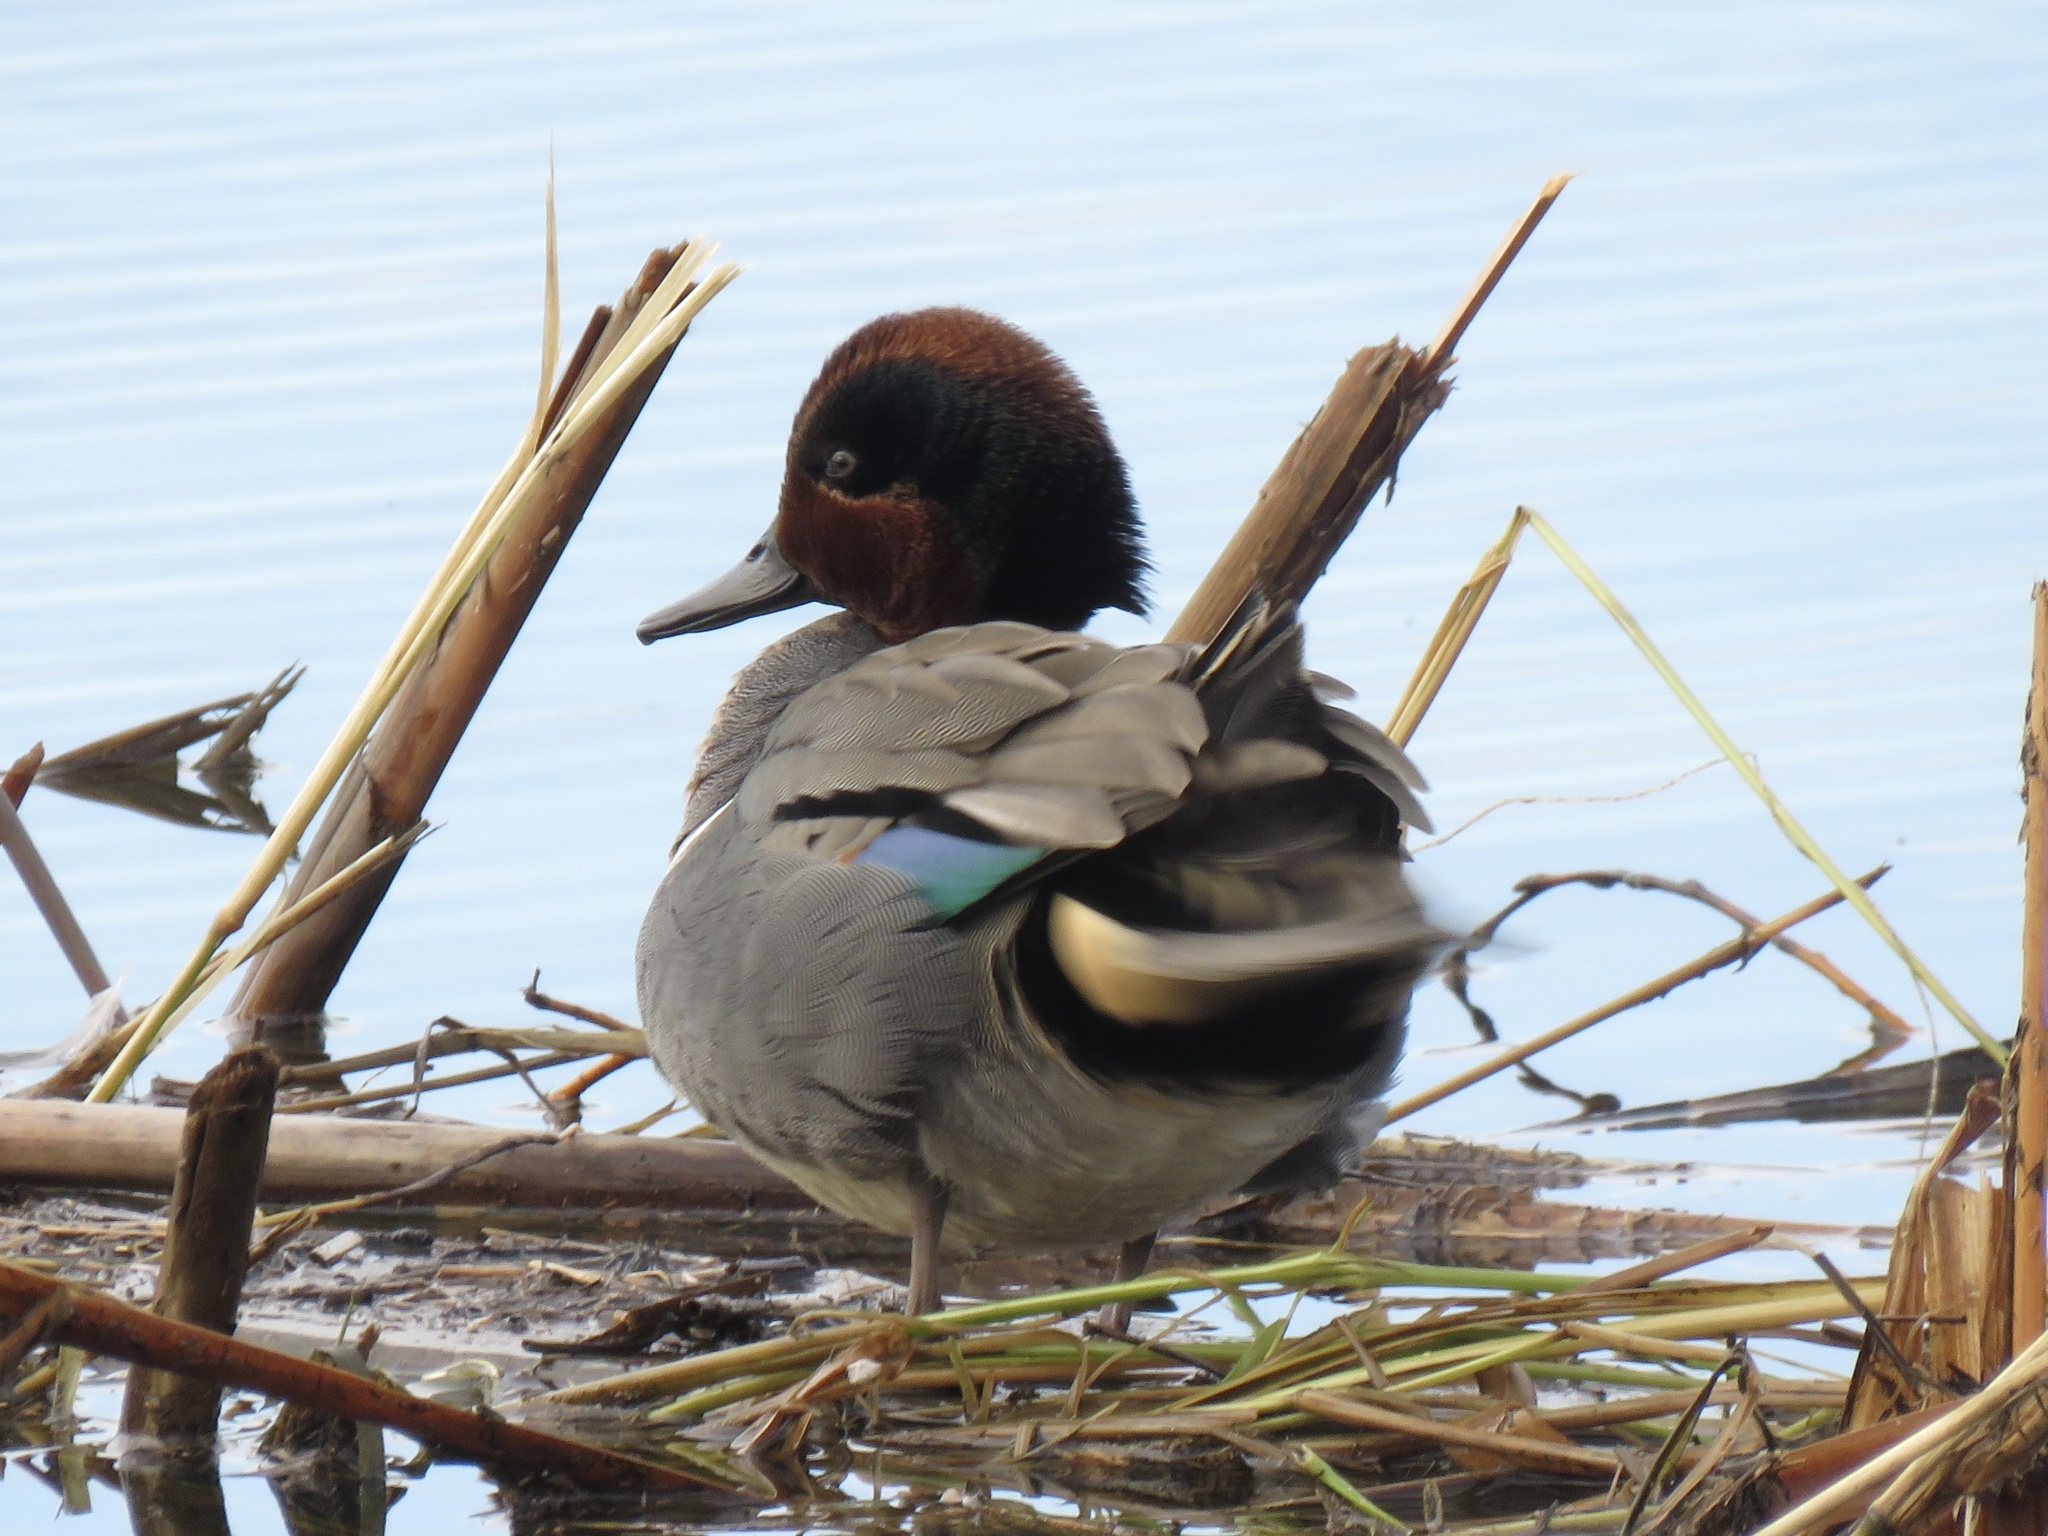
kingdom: Animalia
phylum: Chordata
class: Aves
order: Anseriformes
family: Anatidae
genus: Anas
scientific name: Anas crecca
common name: Eurasian teal
